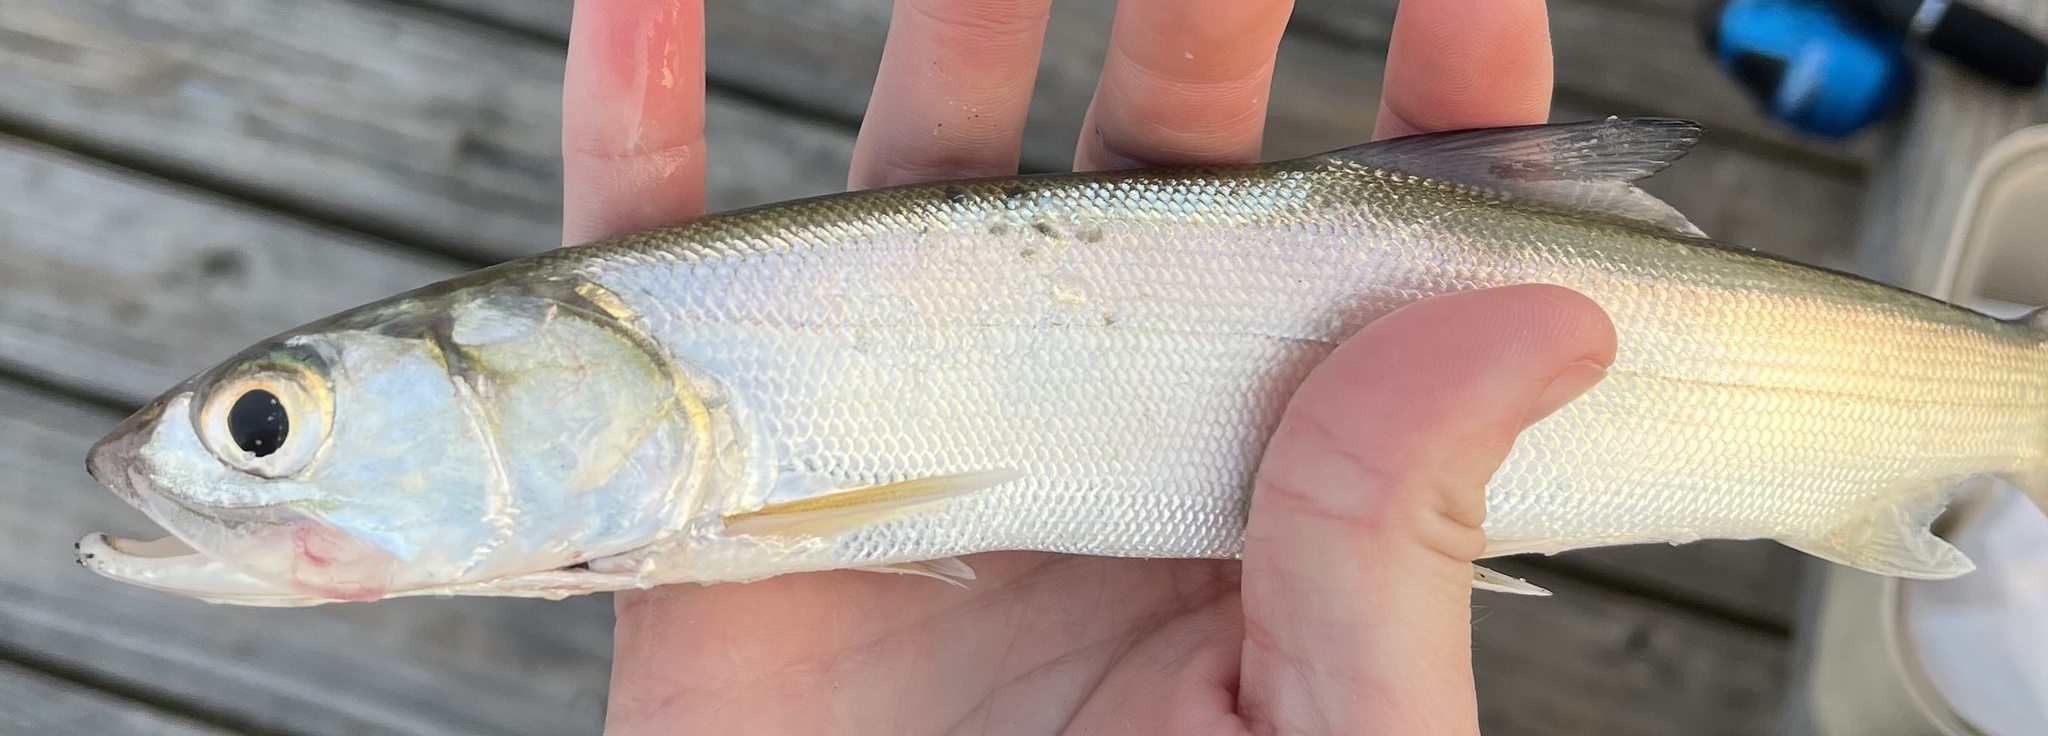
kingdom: Animalia
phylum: Chordata
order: Elopiformes
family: Elopidae
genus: Elops
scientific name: Elops saurus
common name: Ladyfish
